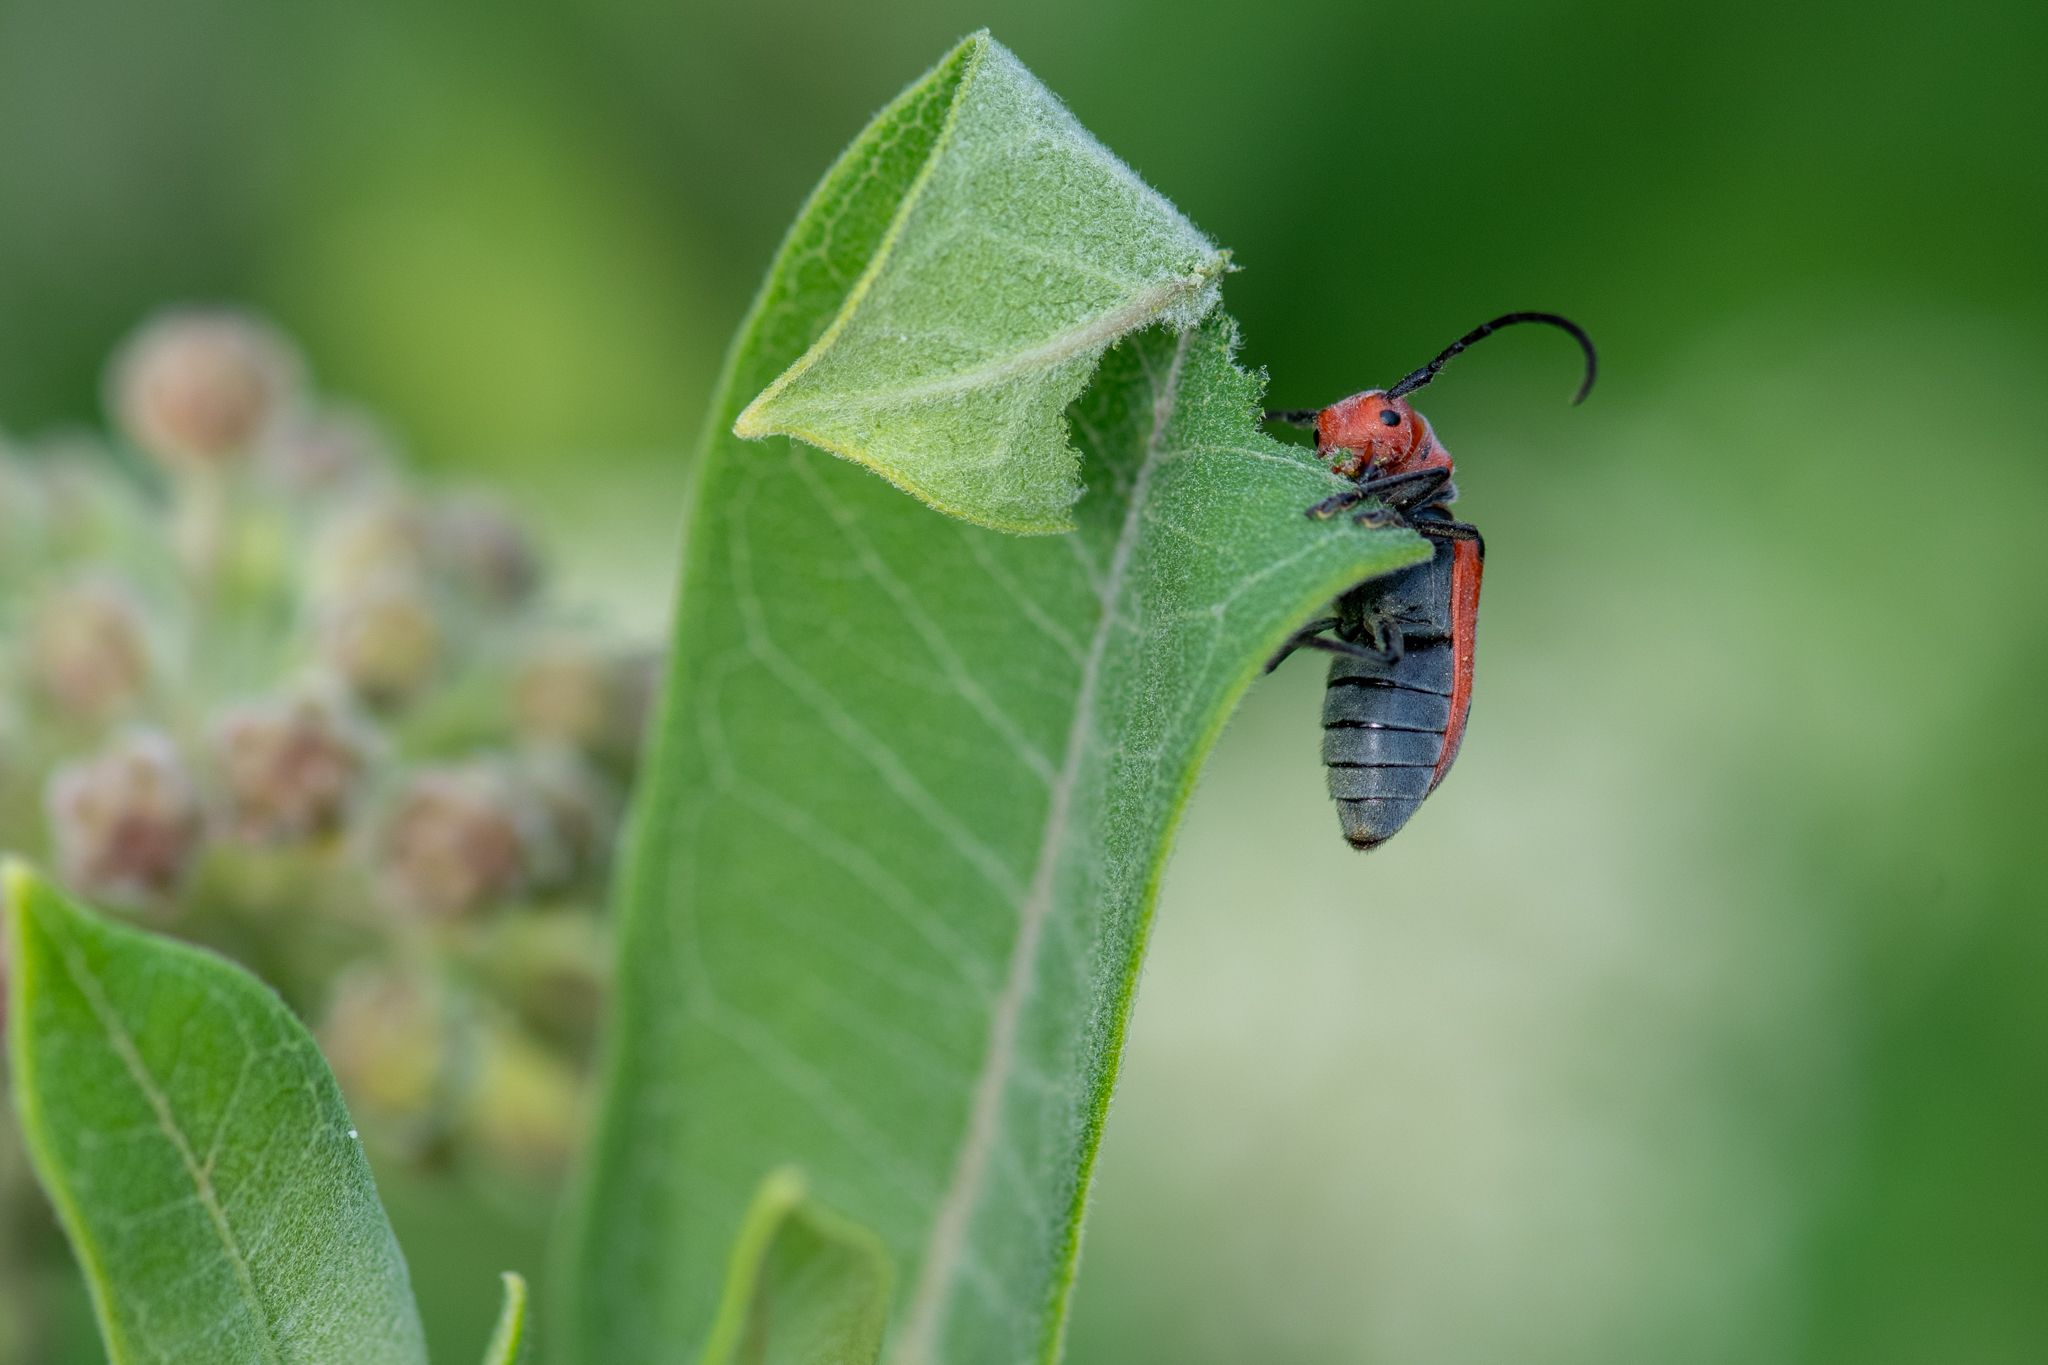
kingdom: Animalia
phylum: Arthropoda
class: Insecta
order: Coleoptera
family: Cerambycidae
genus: Tetraopes
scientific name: Tetraopes tetrophthalmus
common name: Red milkweed beetle
